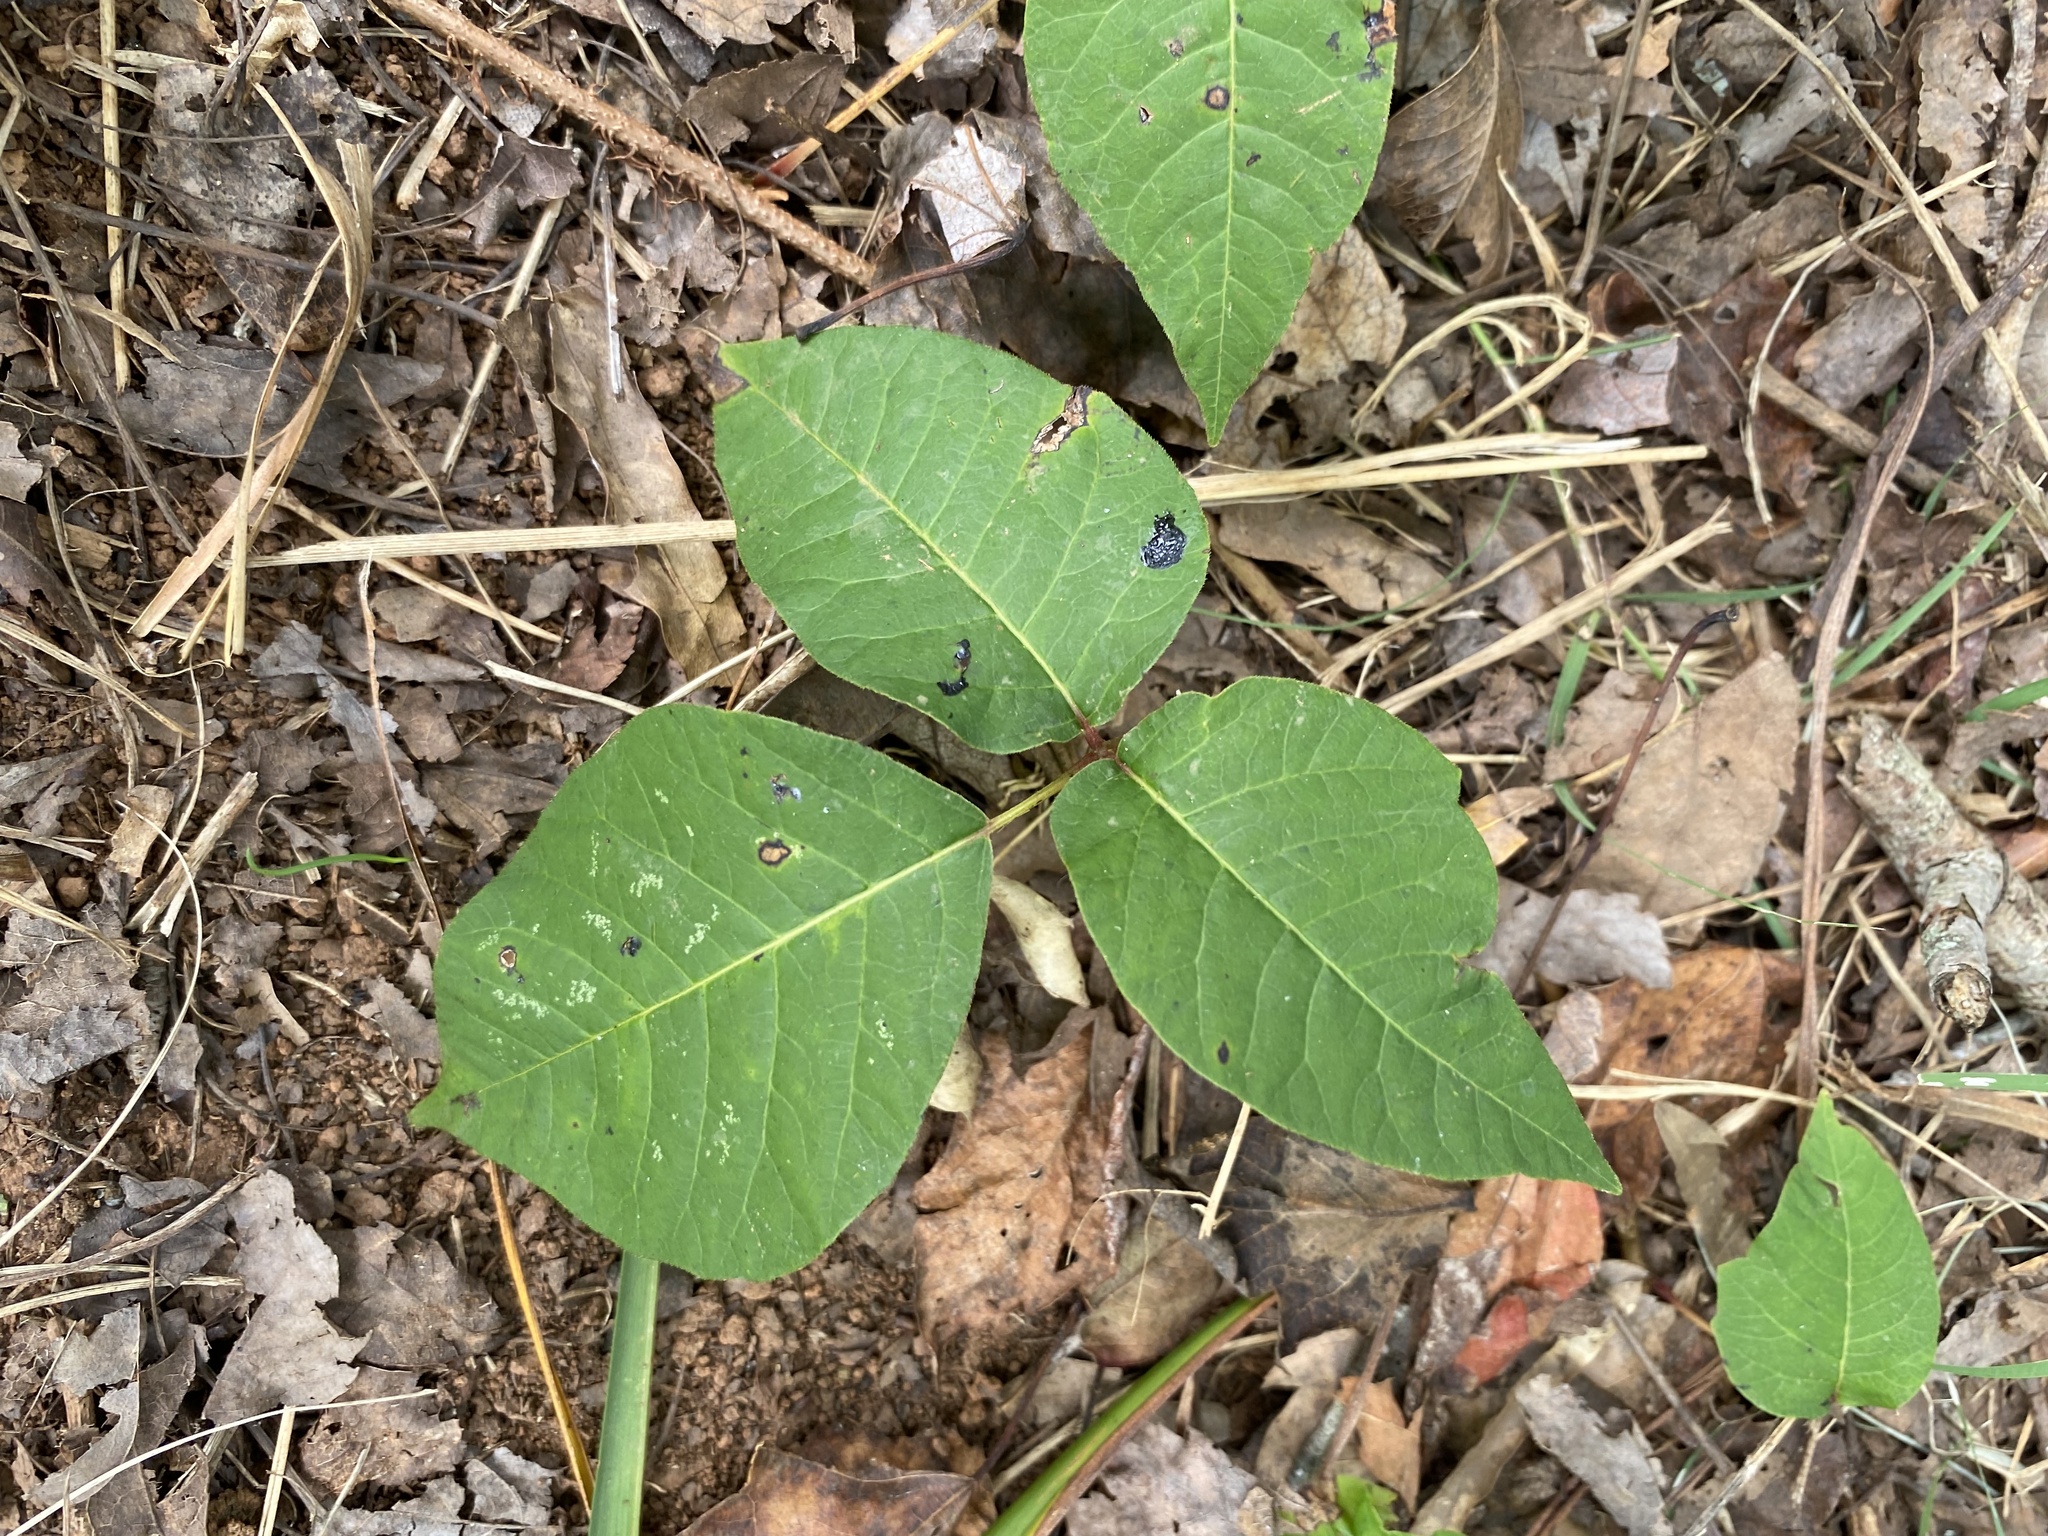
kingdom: Plantae
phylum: Tracheophyta
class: Magnoliopsida
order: Sapindales
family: Anacardiaceae
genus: Toxicodendron
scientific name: Toxicodendron radicans
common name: Poison ivy
